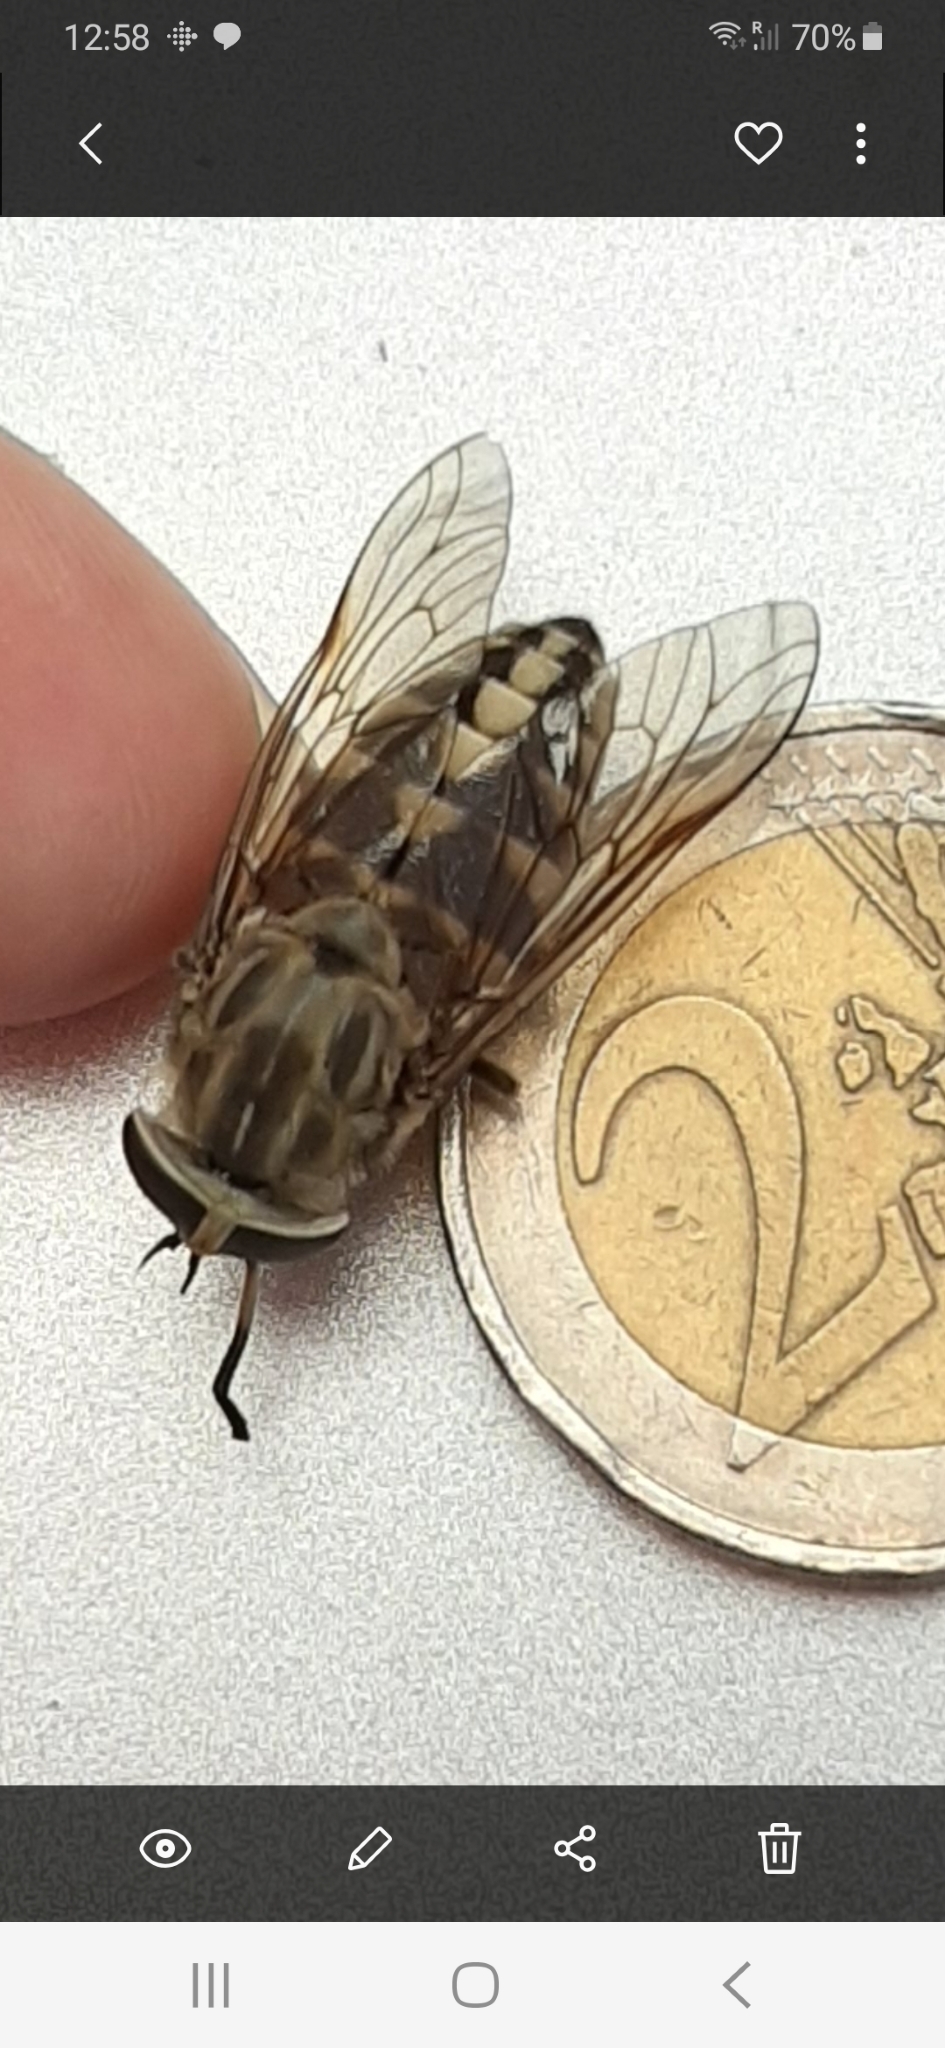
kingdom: Animalia
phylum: Arthropoda
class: Insecta
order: Diptera
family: Tabanidae
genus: Tabanus
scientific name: Tabanus rectus
